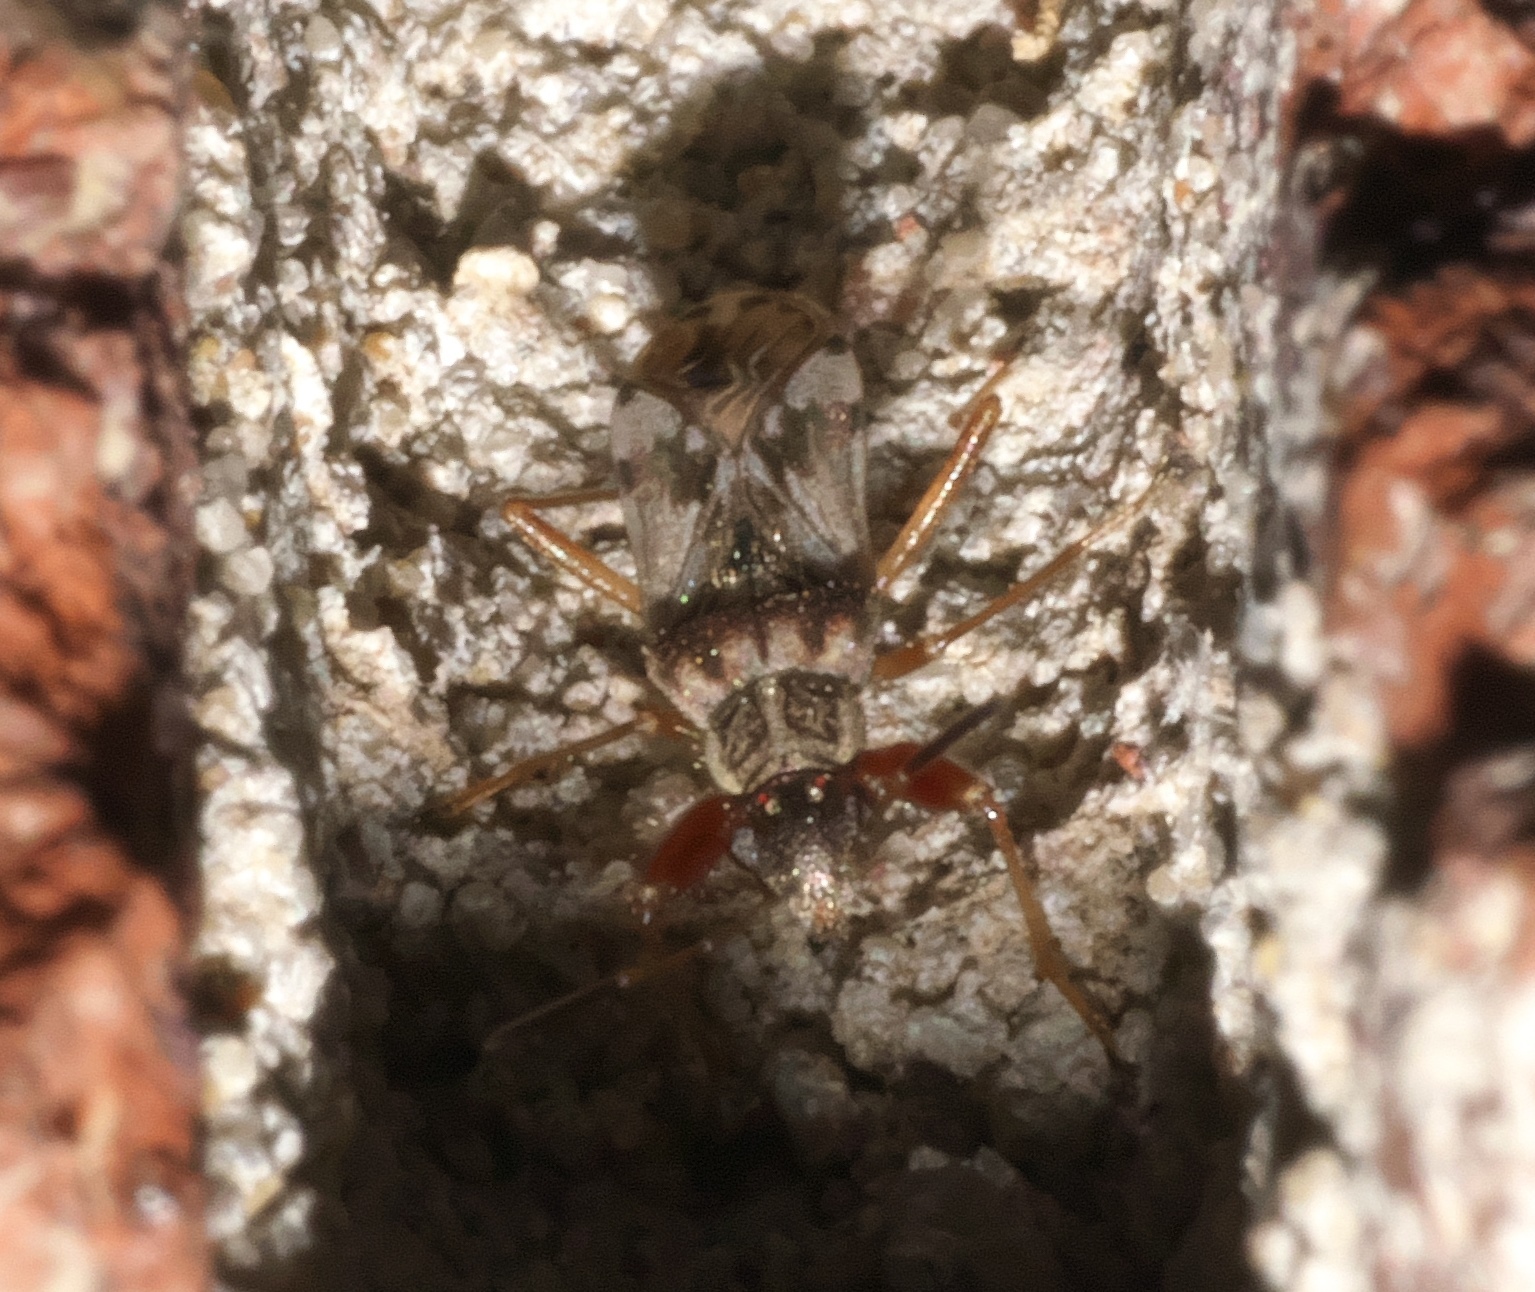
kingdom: Animalia
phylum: Arthropoda
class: Insecta
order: Hemiptera
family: Rhyparochromidae
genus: Neopamera
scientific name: Neopamera bilobata
